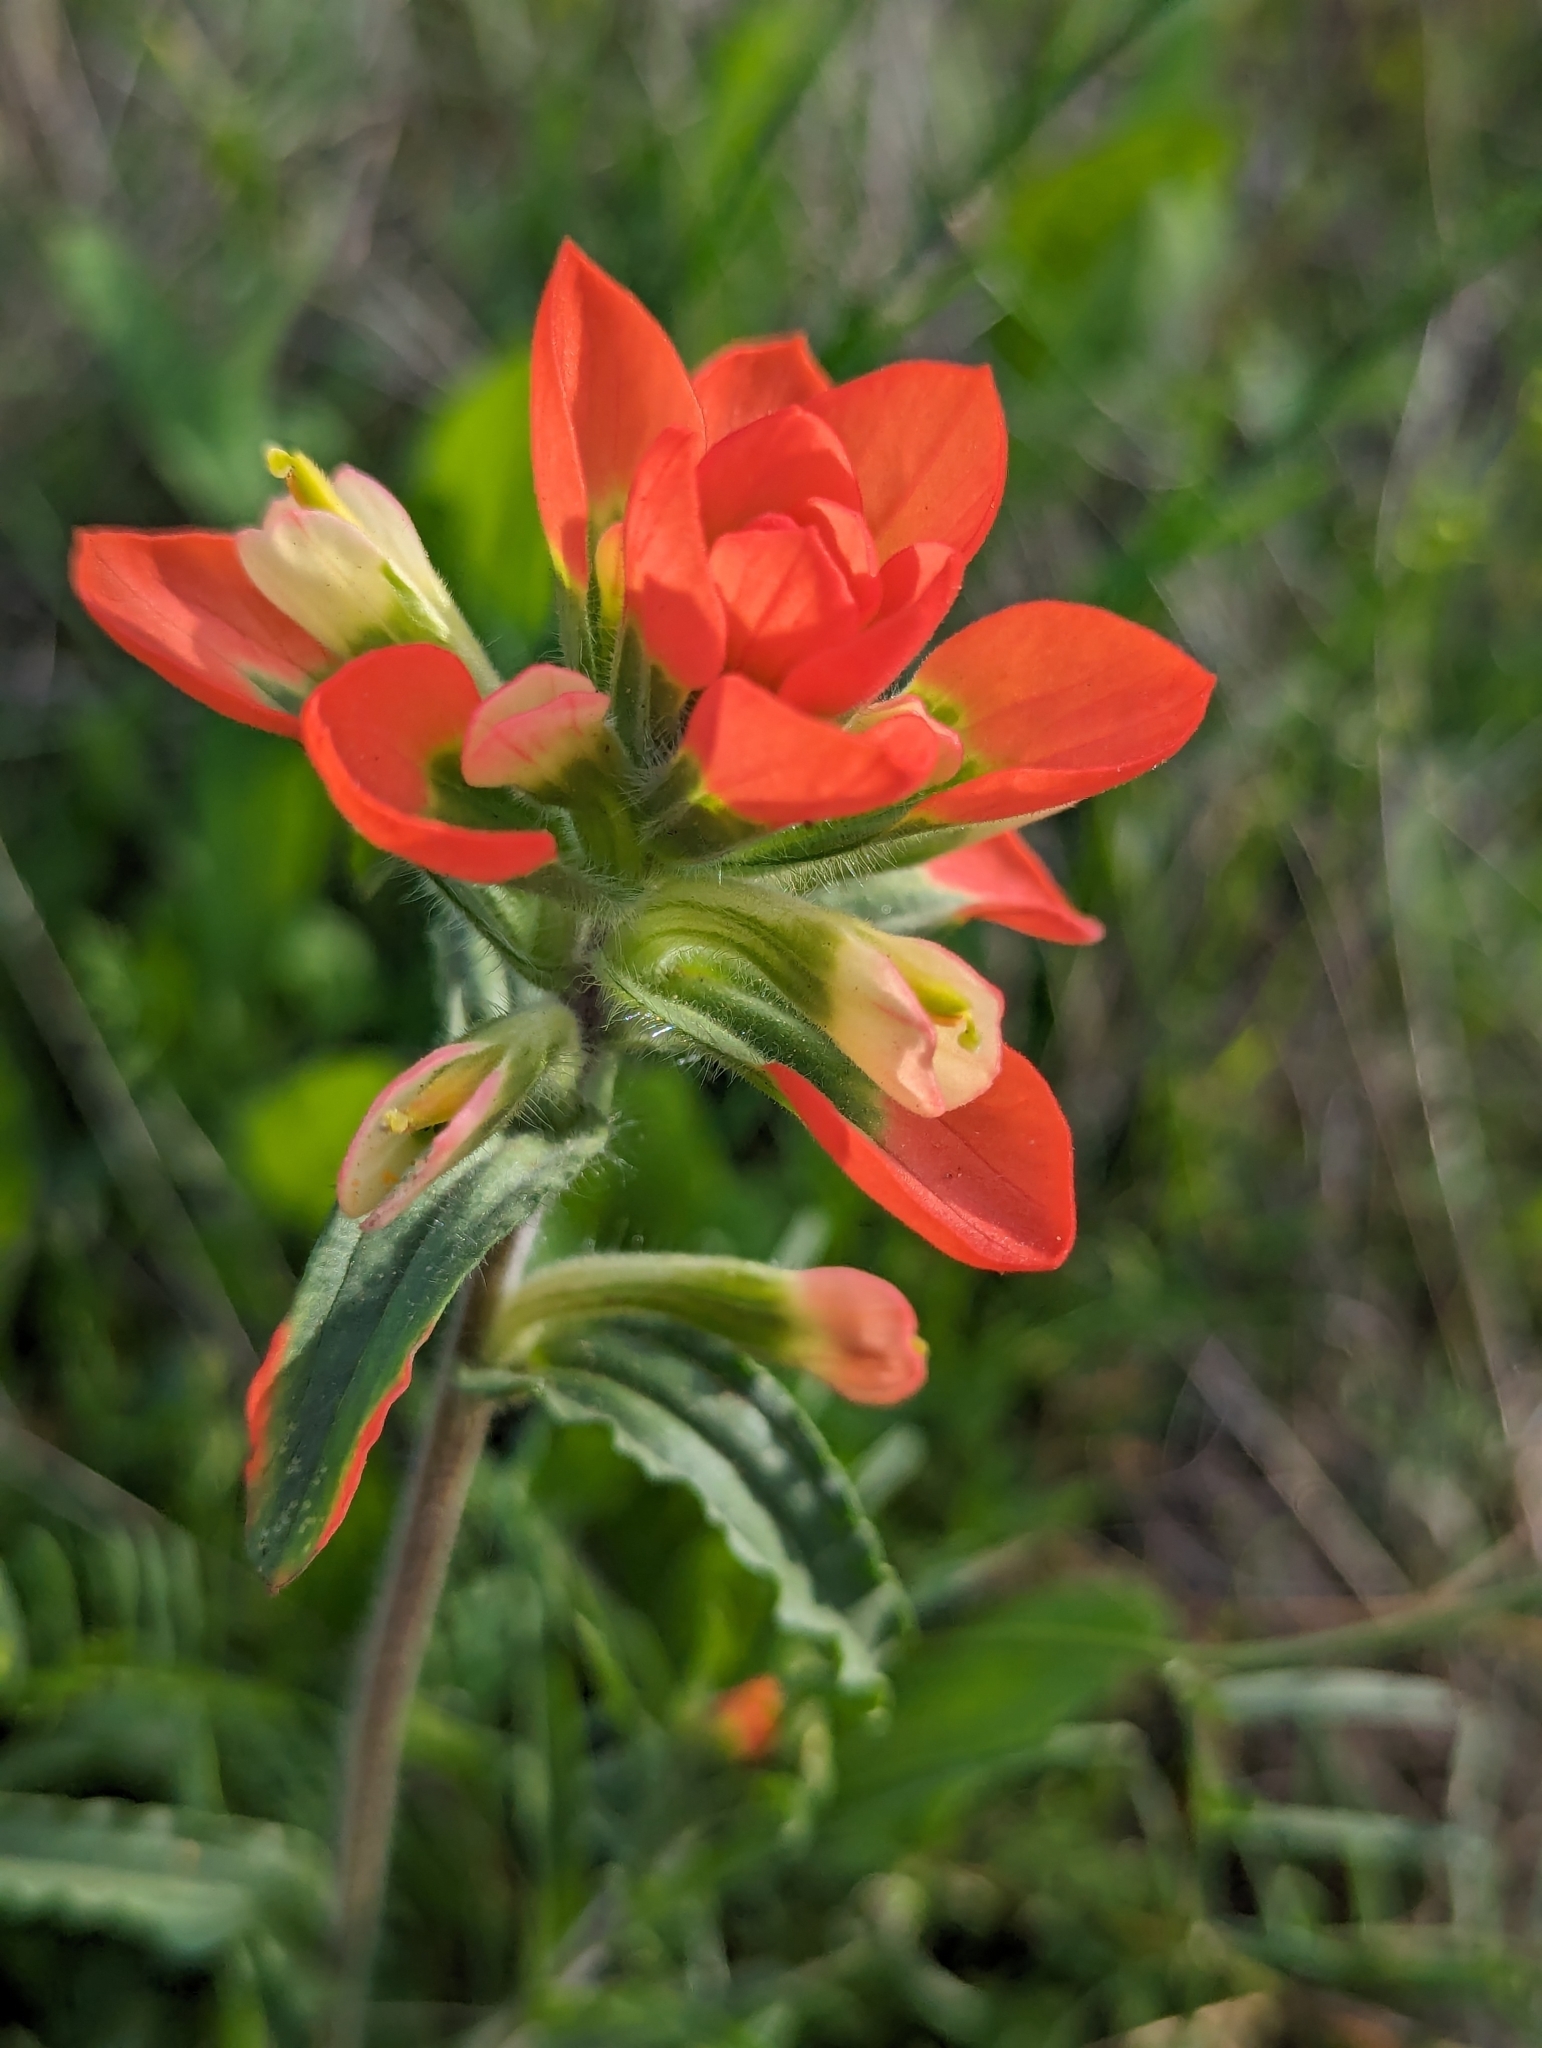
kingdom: Plantae
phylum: Tracheophyta
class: Magnoliopsida
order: Lamiales
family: Orobanchaceae
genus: Castilleja
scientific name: Castilleja indivisa
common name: Texas paintbrush
